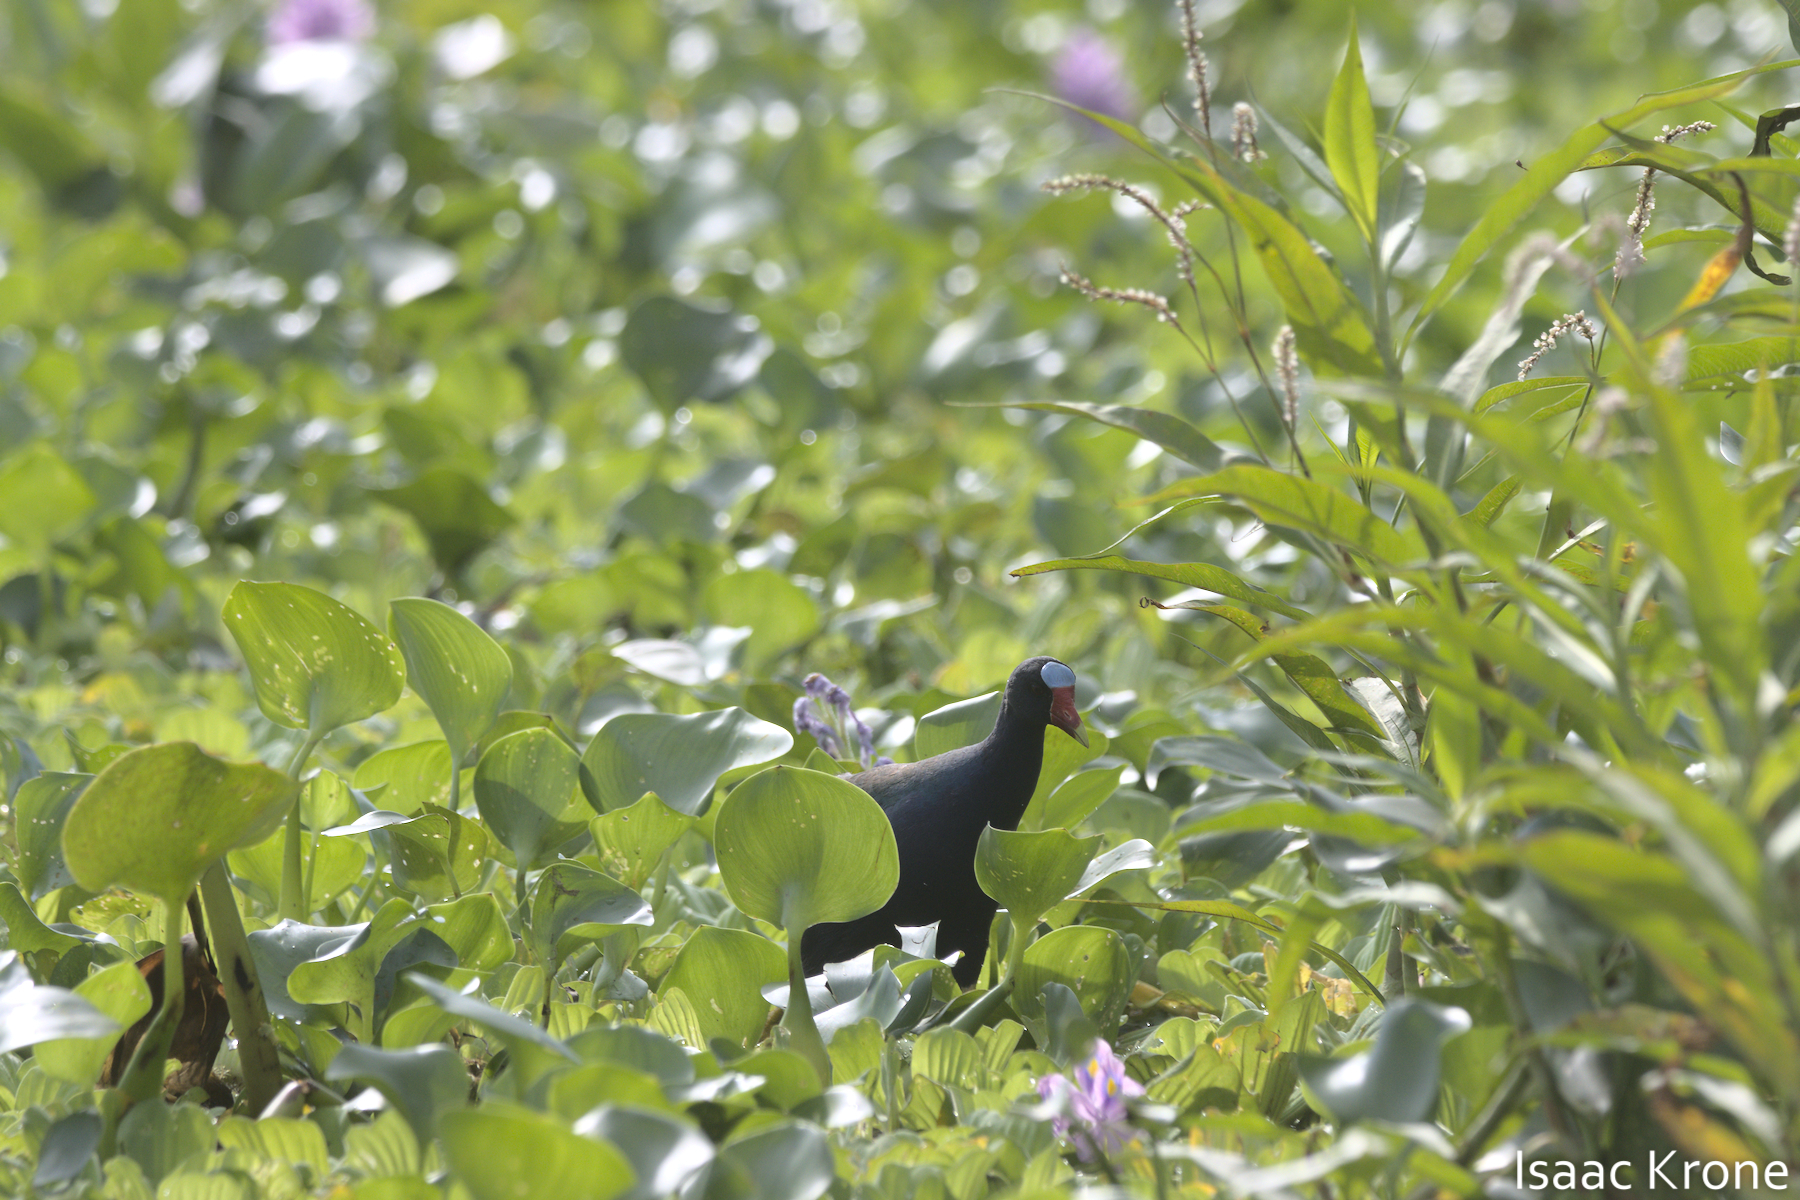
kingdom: Animalia
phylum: Chordata
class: Aves
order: Gruiformes
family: Rallidae
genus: Porphyrio
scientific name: Porphyrio martinica
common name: Purple gallinule
